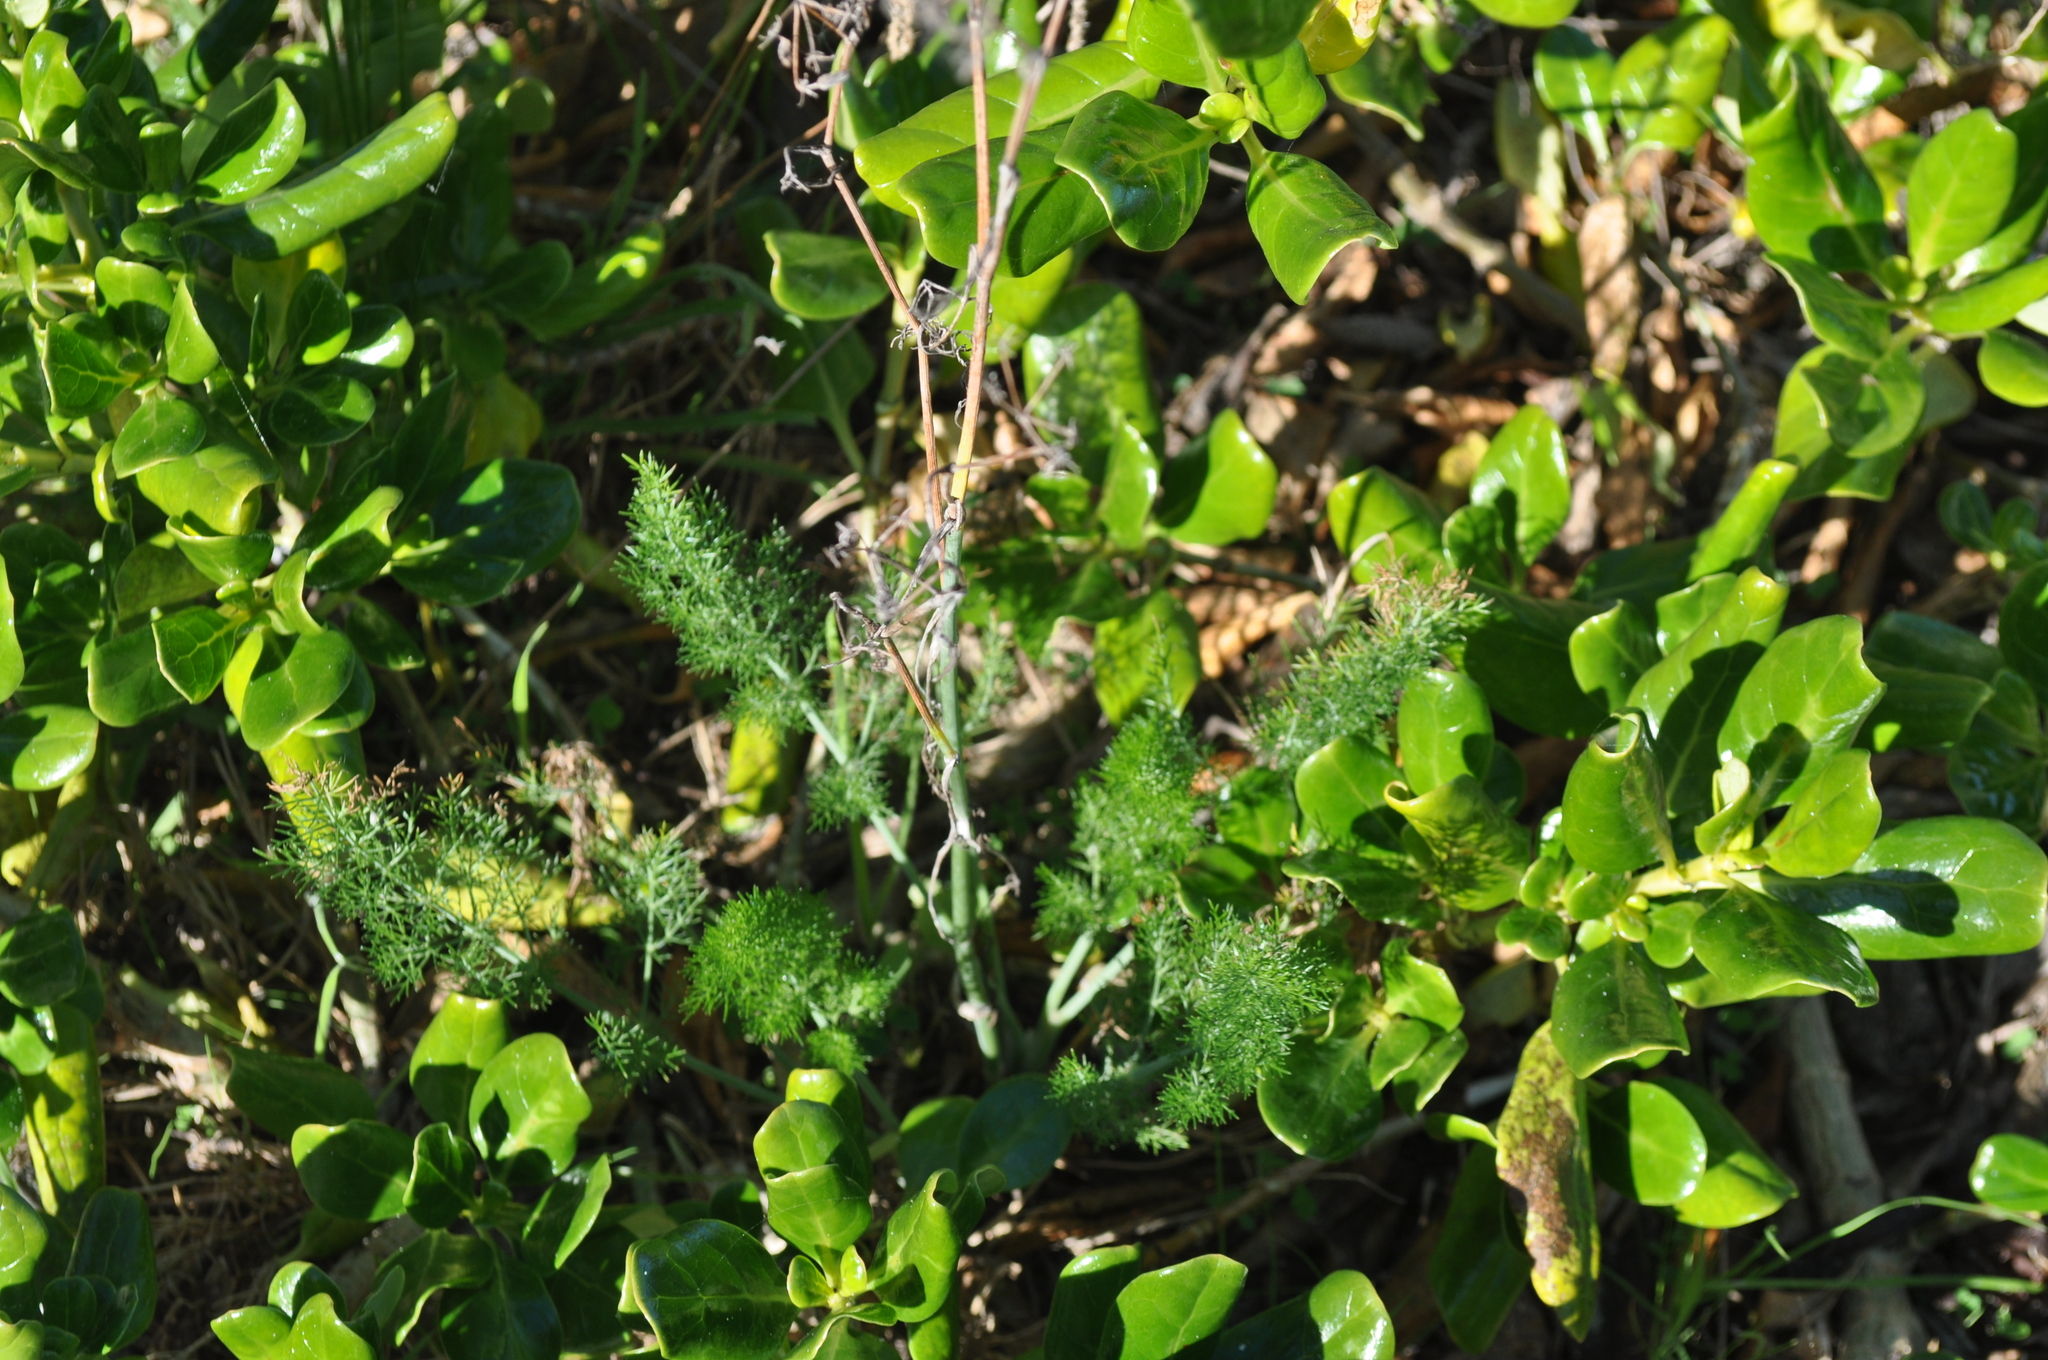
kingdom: Plantae
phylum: Tracheophyta
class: Magnoliopsida
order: Apiales
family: Apiaceae
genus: Foeniculum
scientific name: Foeniculum vulgare
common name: Fennel
